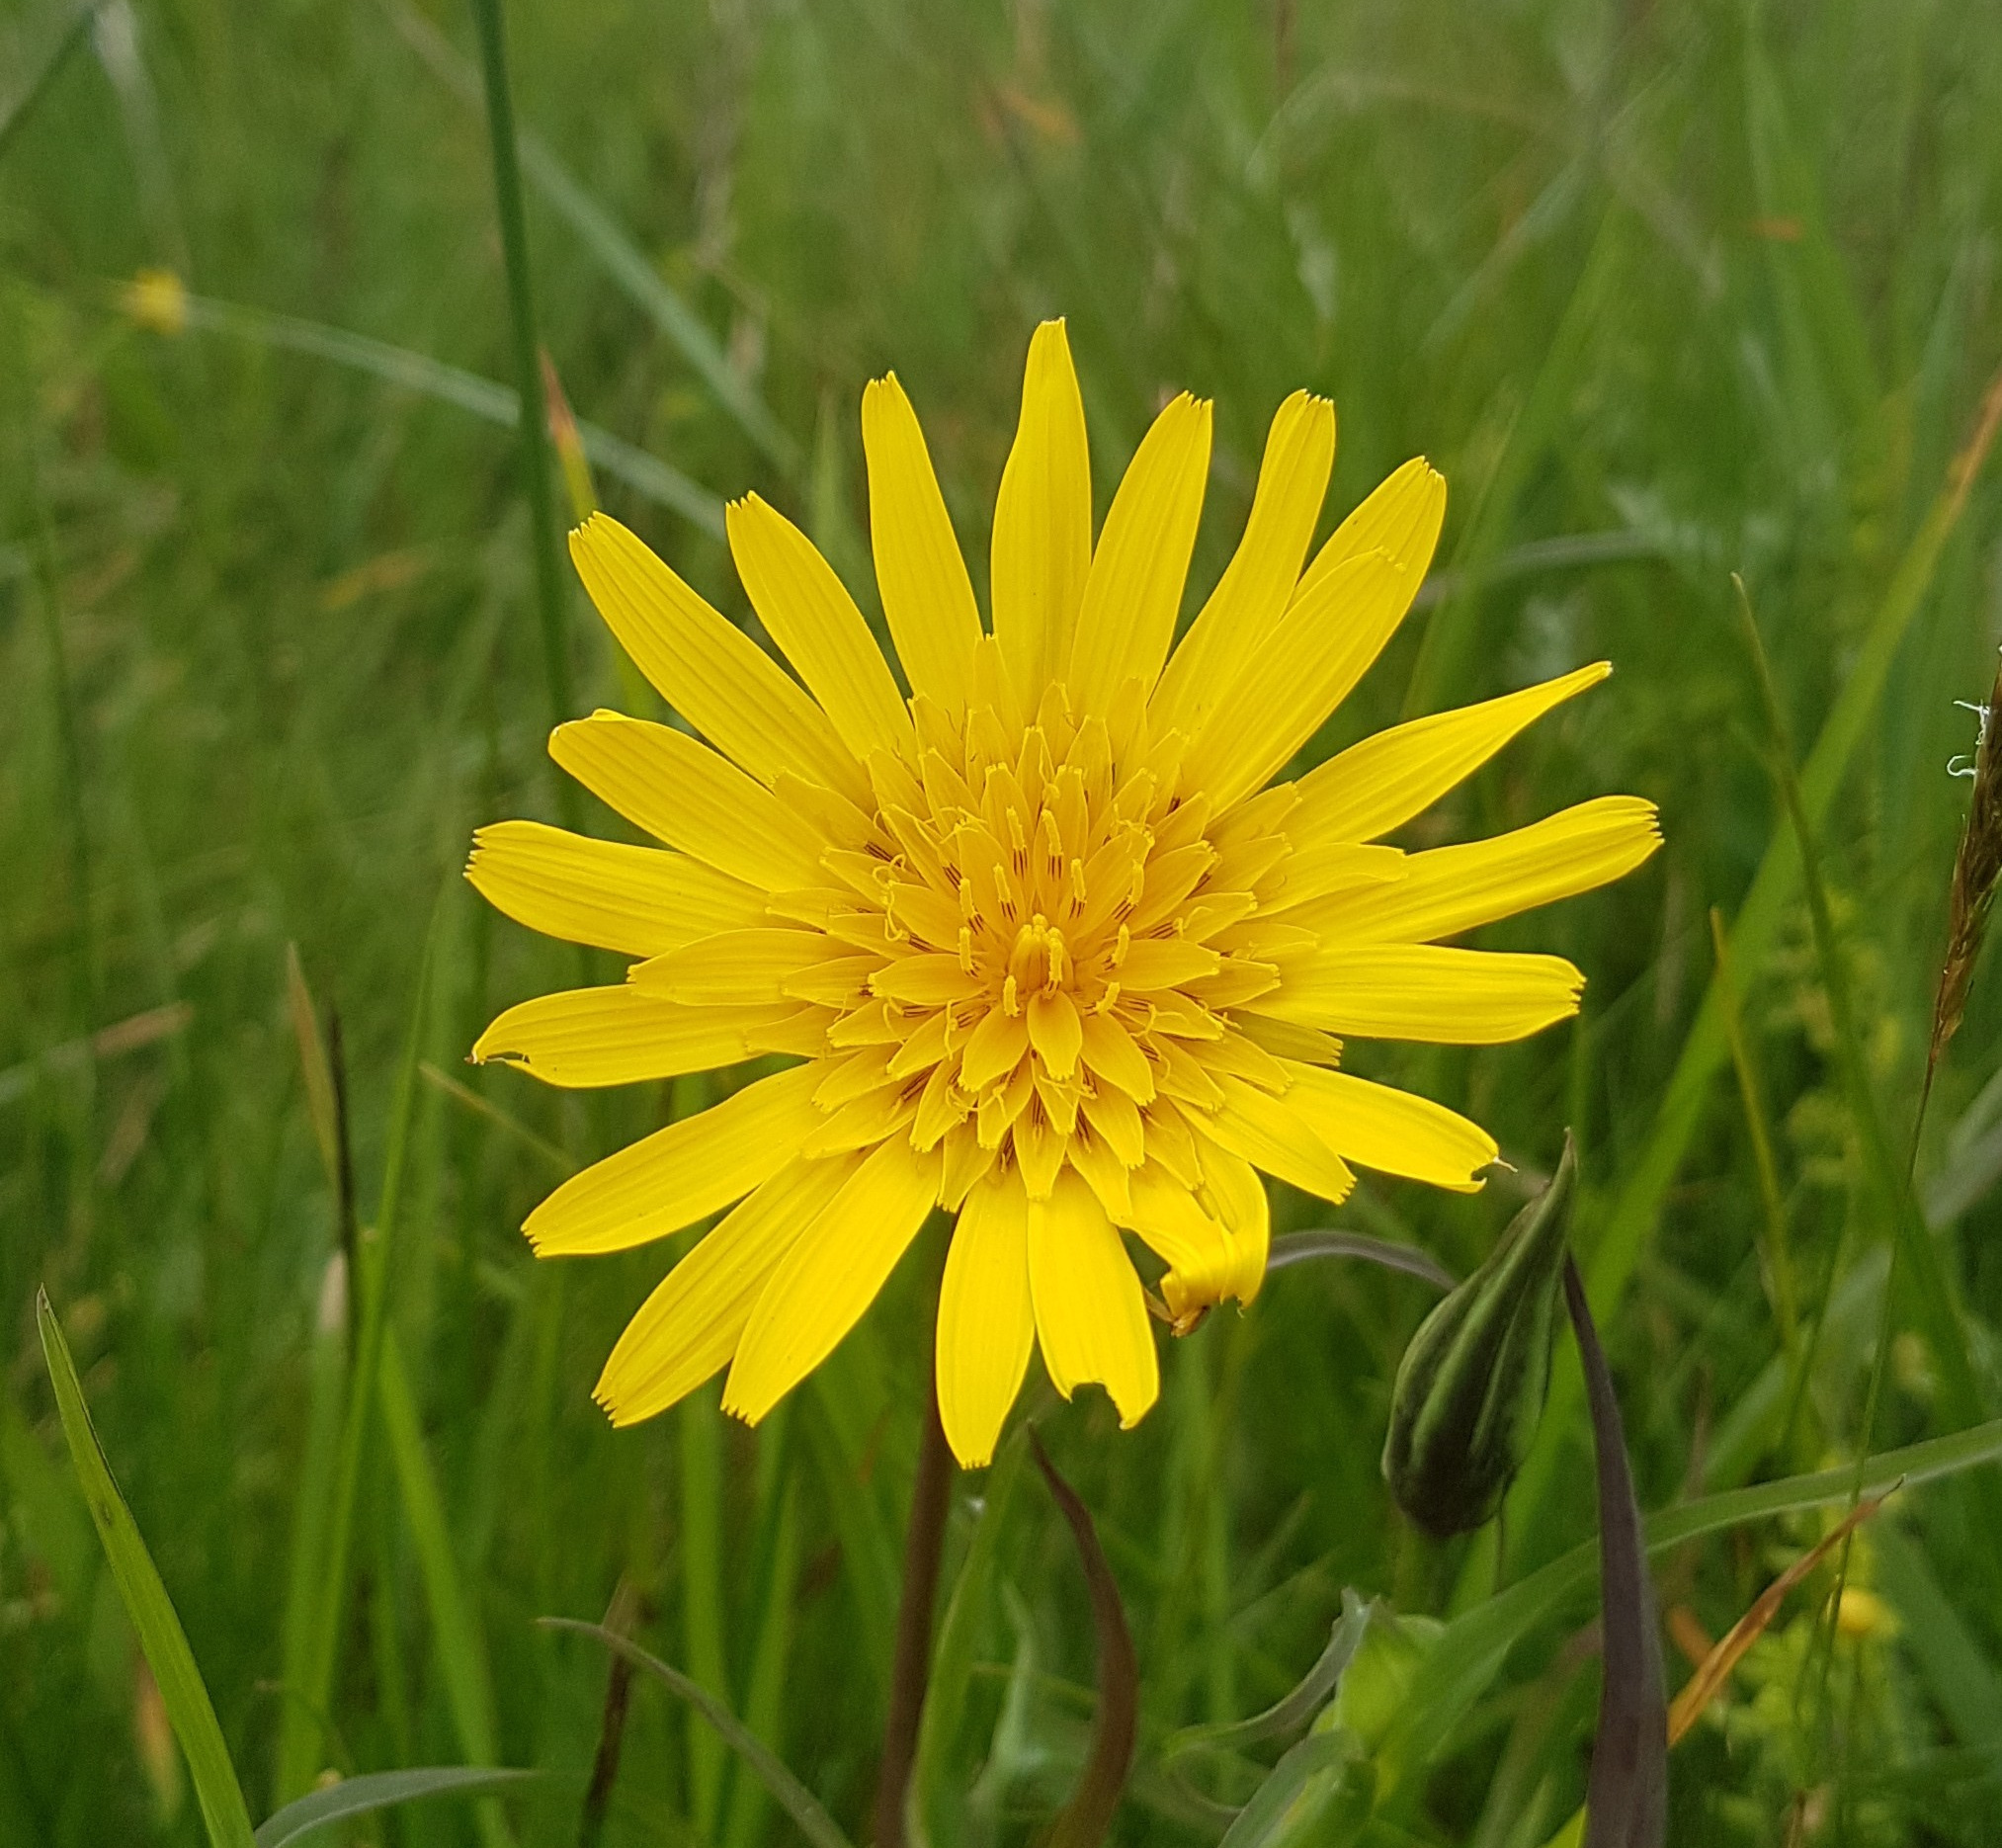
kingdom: Plantae
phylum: Tracheophyta
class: Magnoliopsida
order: Asterales
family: Asteraceae
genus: Tragopogon
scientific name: Tragopogon orientalis
